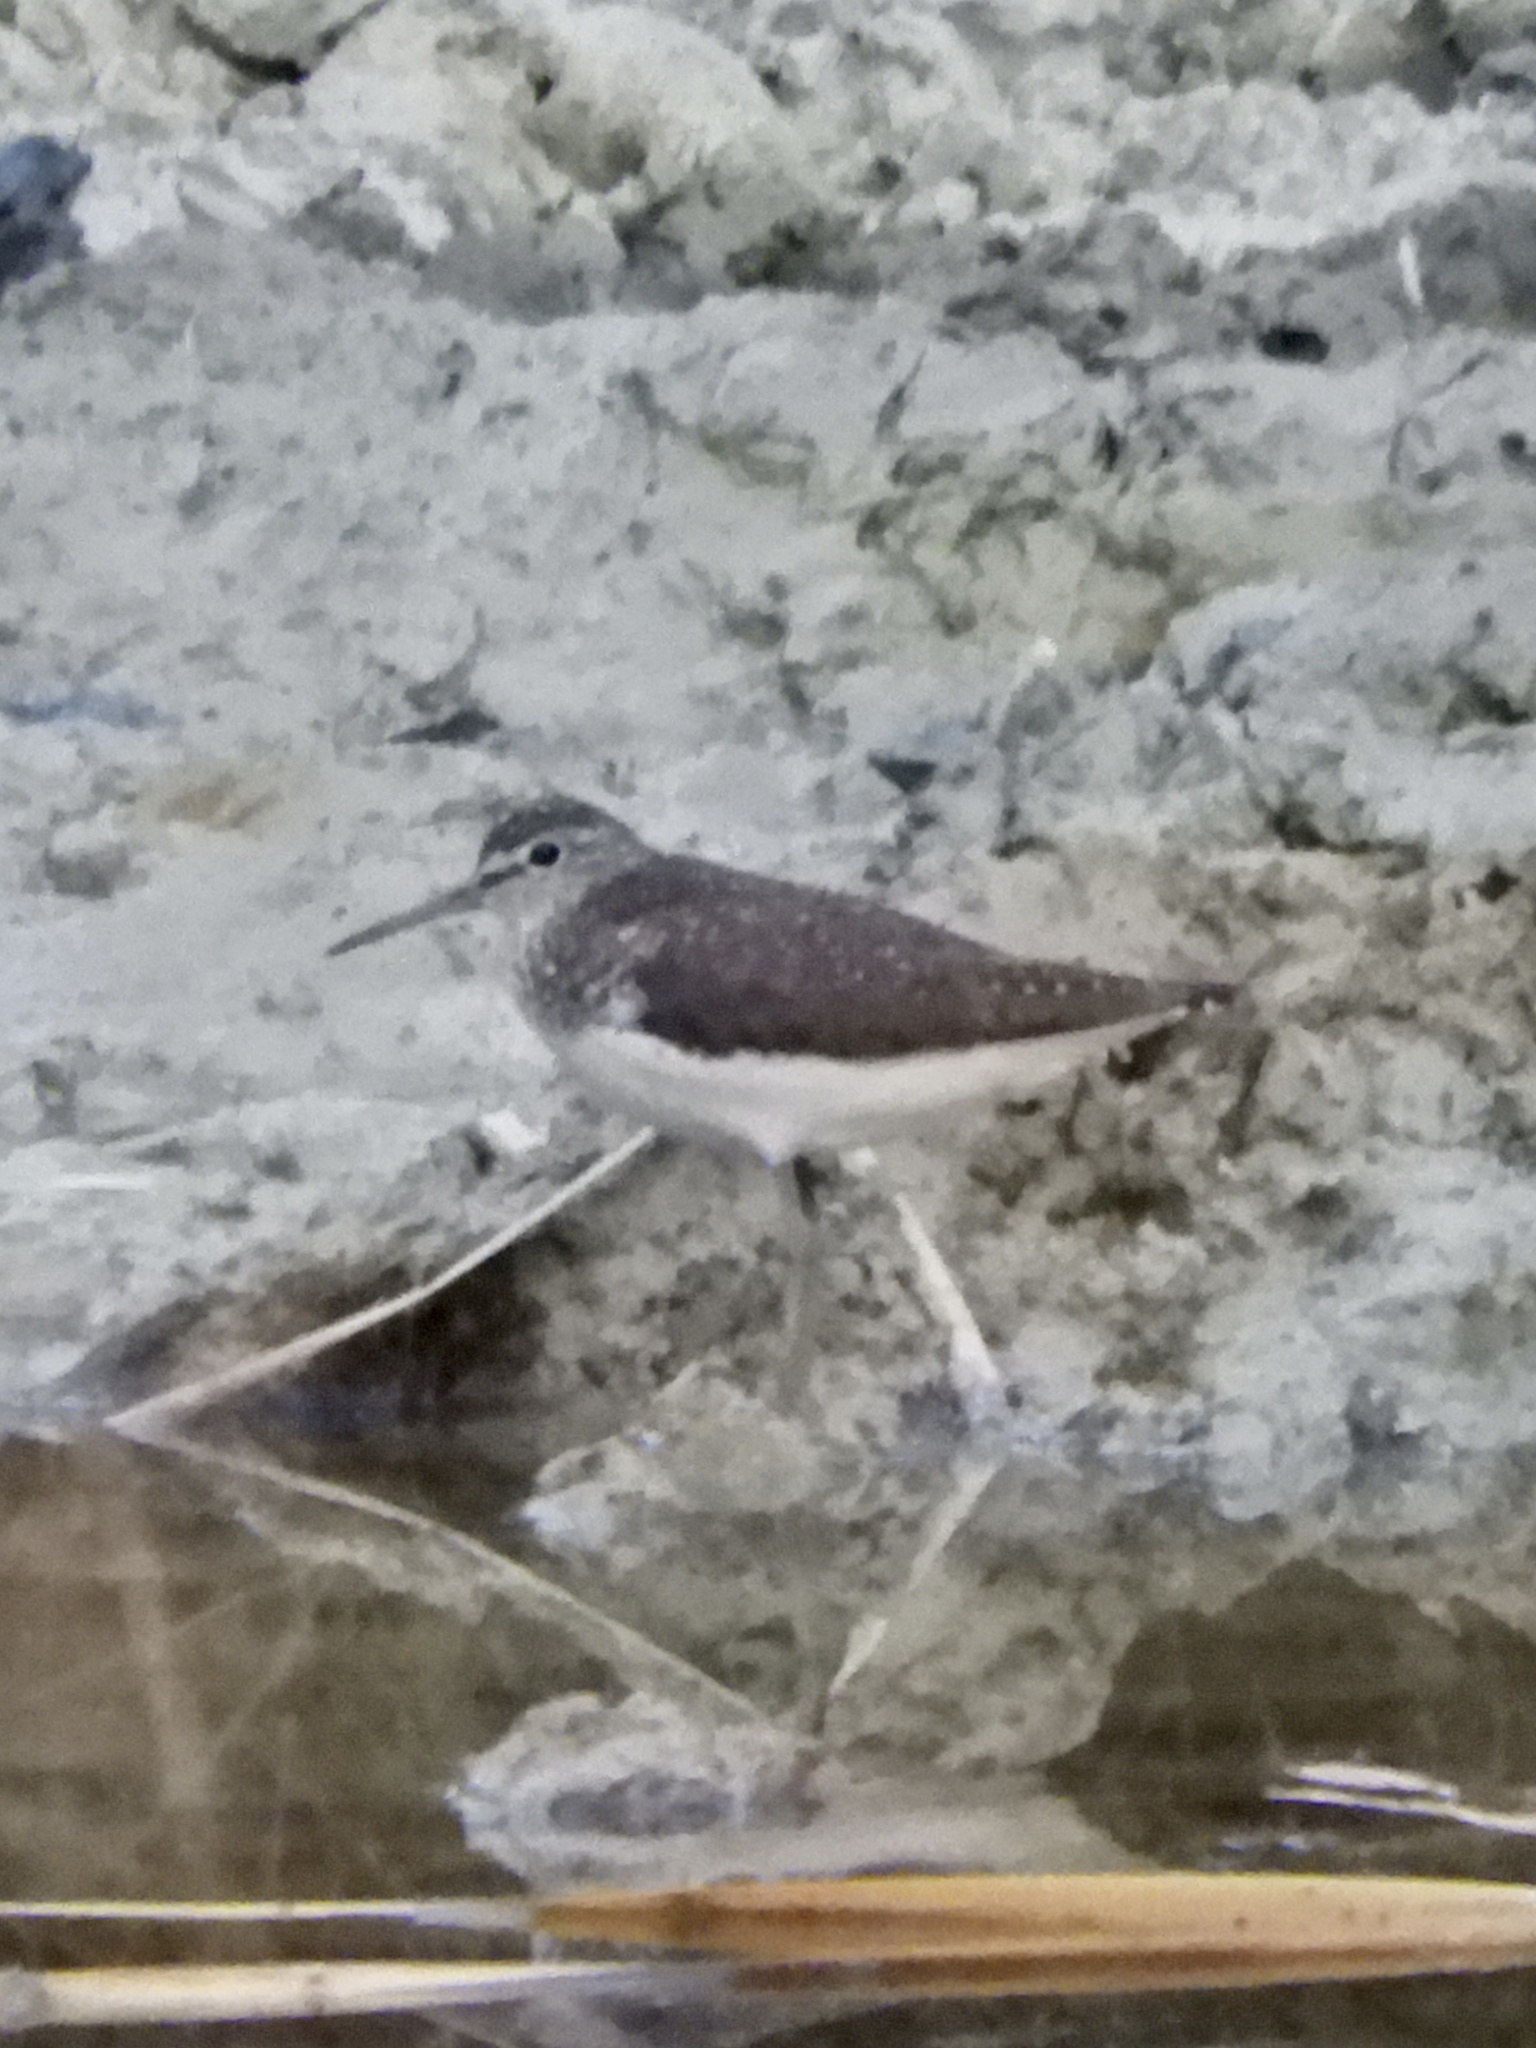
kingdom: Animalia
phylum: Chordata
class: Aves
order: Charadriiformes
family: Scolopacidae
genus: Tringa
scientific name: Tringa ochropus
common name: Green sandpiper
